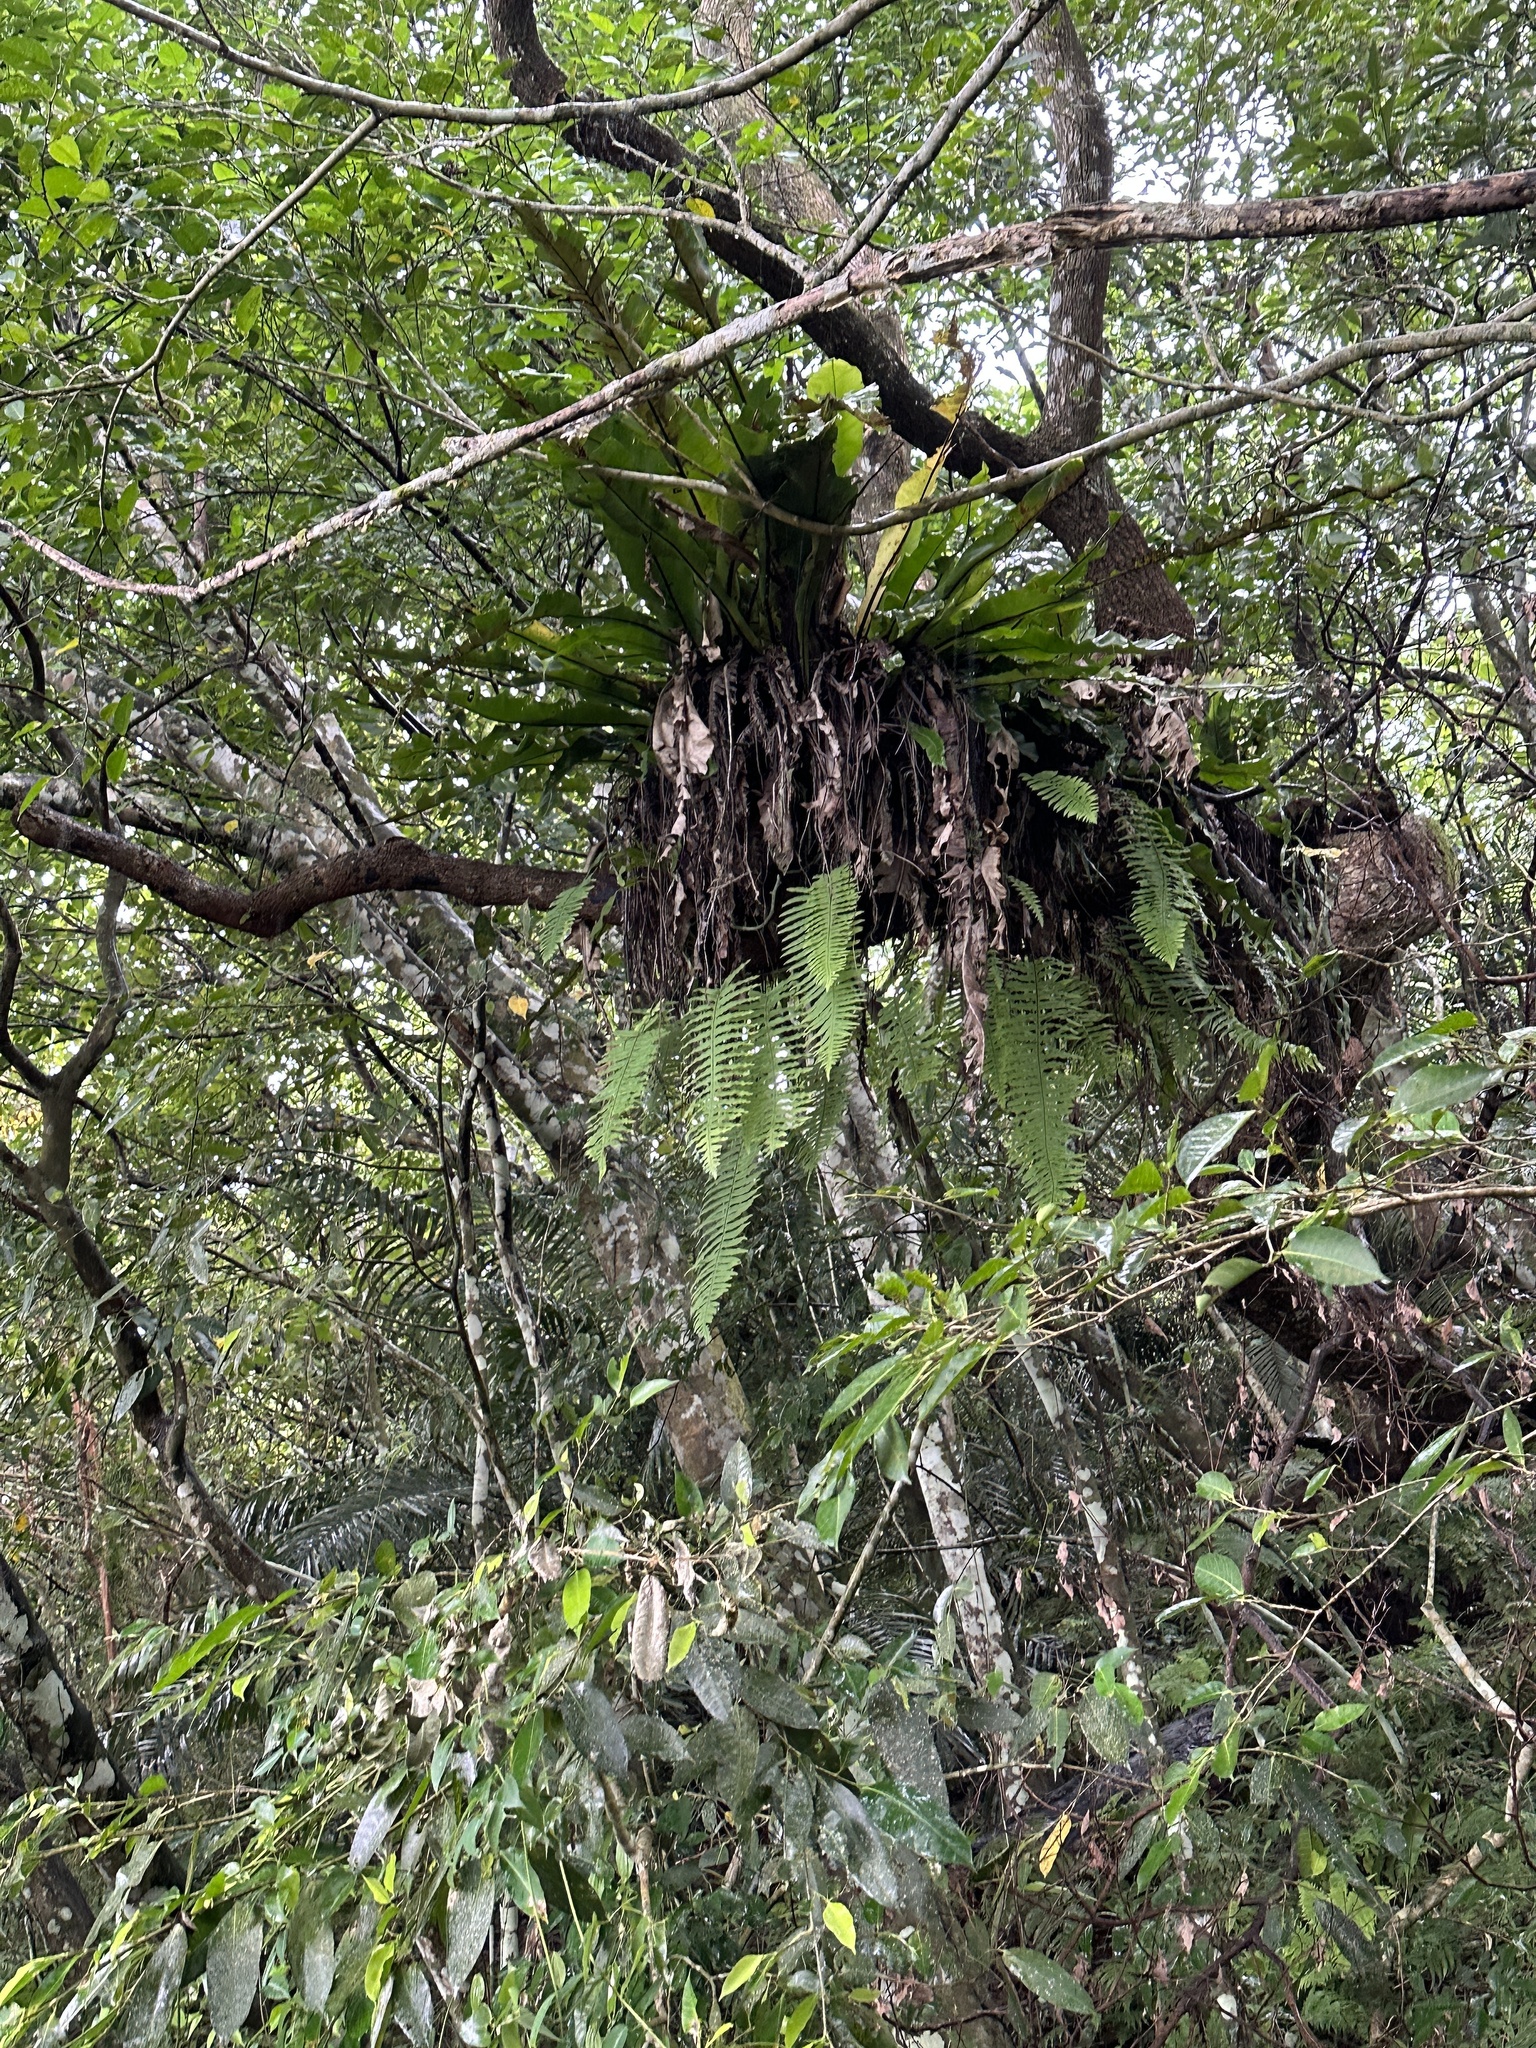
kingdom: Plantae
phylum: Tracheophyta
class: Polypodiopsida
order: Polypodiales
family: Polypodiaceae
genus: Goniophlebium
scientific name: Goniophlebium formosanum
